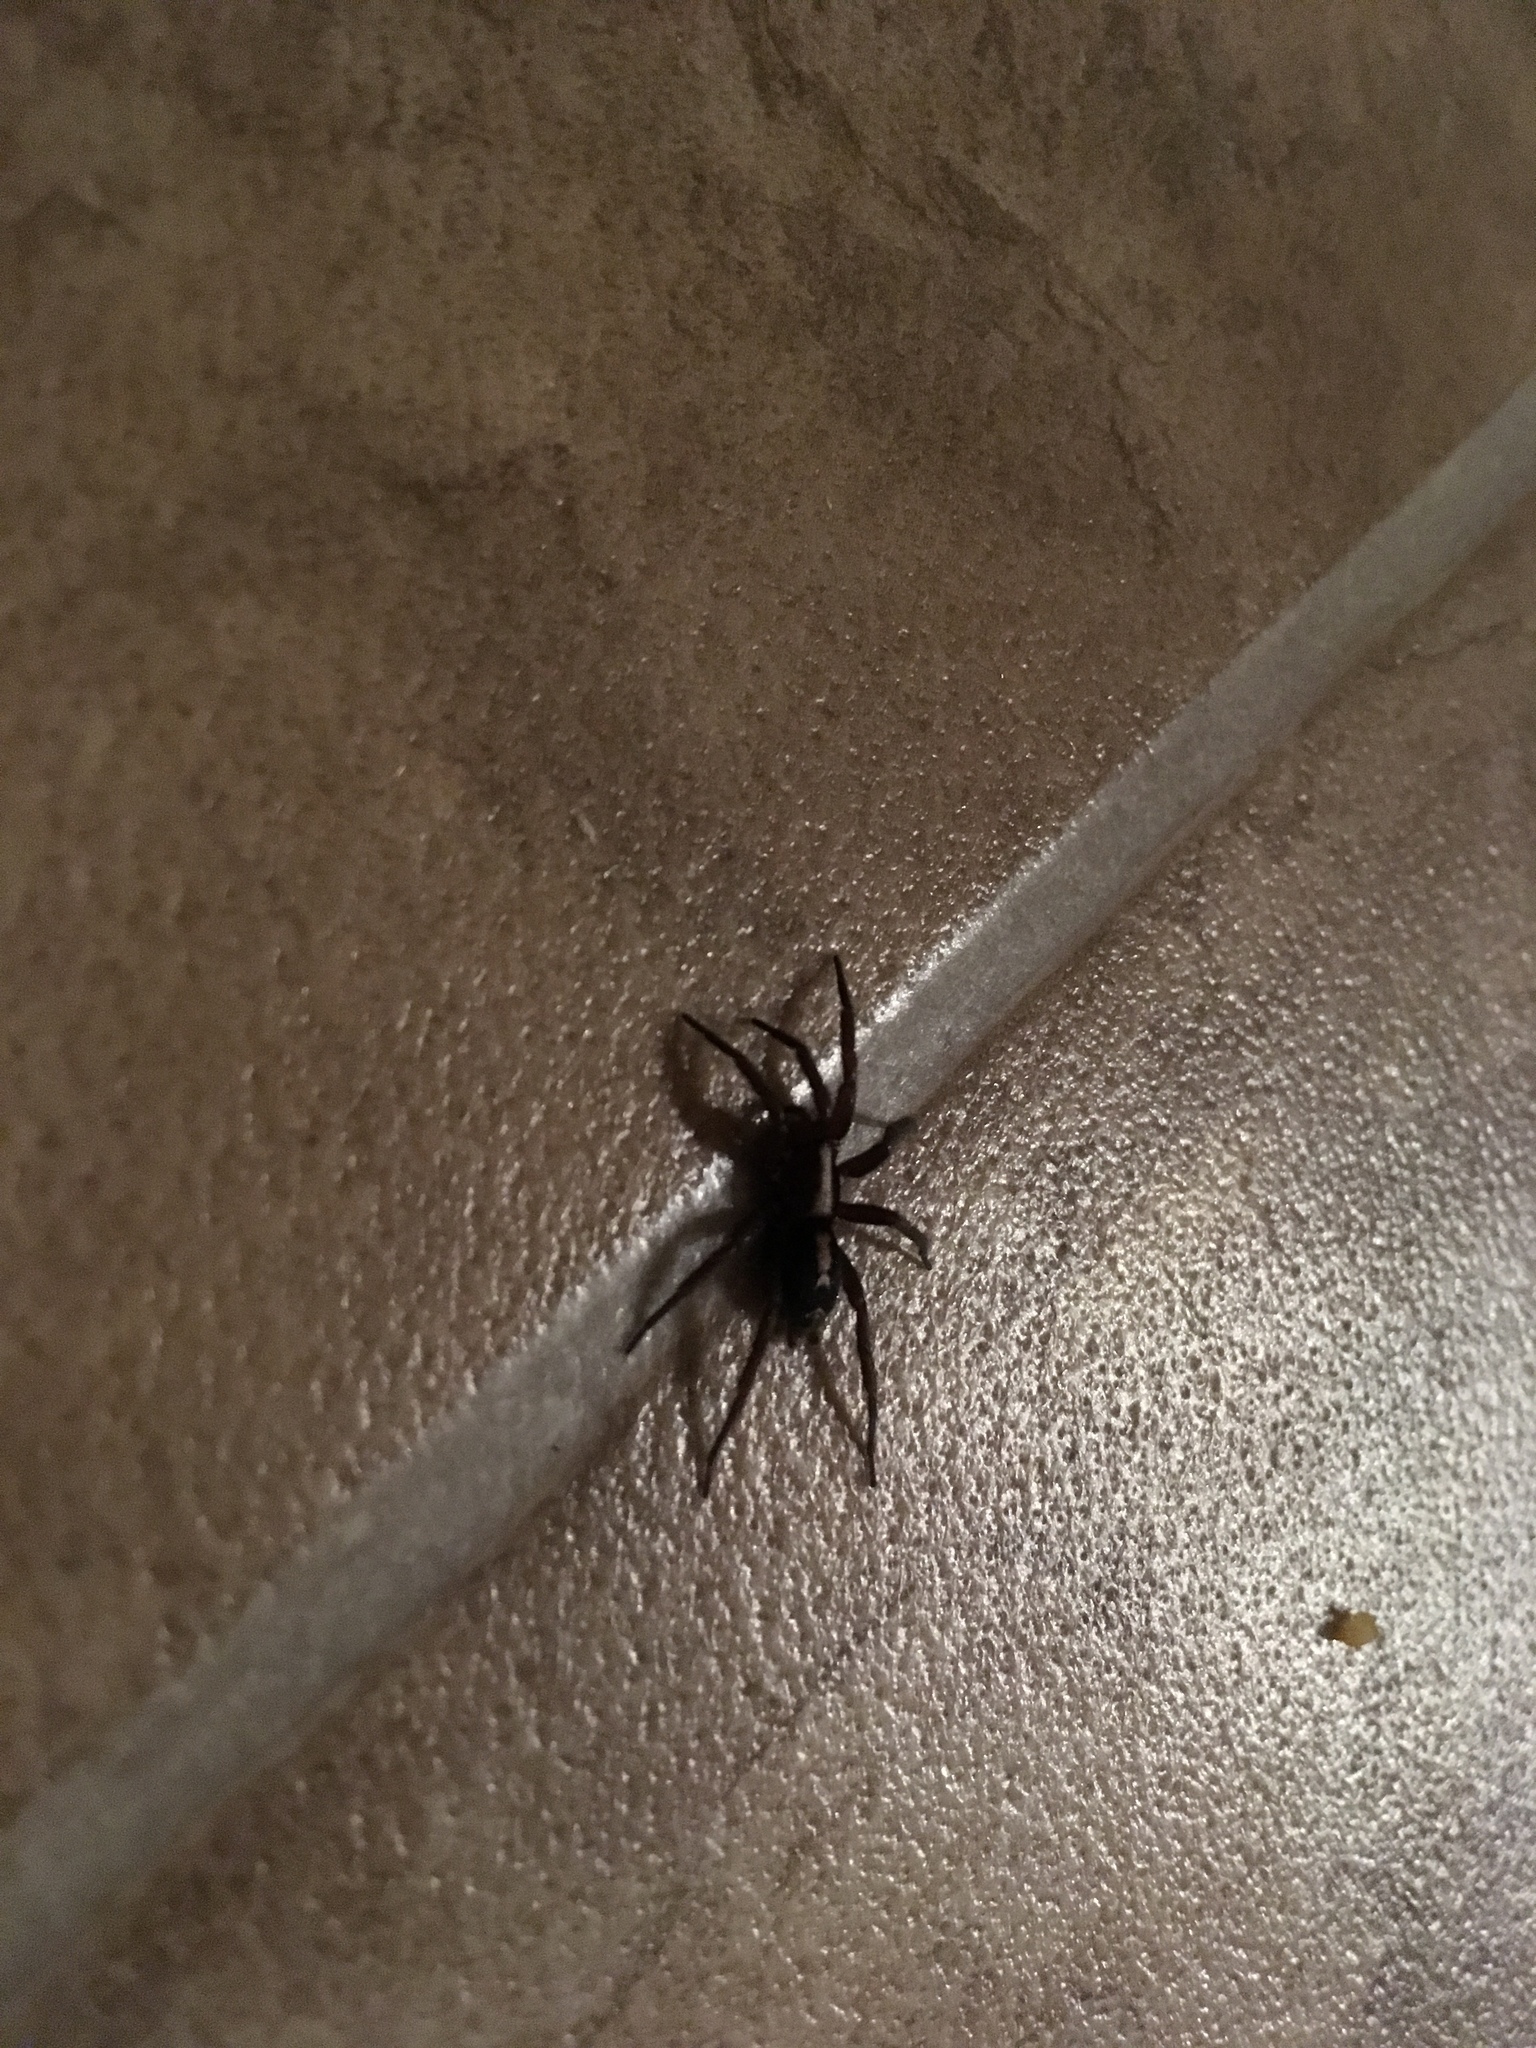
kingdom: Animalia
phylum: Arthropoda
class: Arachnida
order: Araneae
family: Gnaphosidae
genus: Herpyllus
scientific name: Herpyllus propinquus
